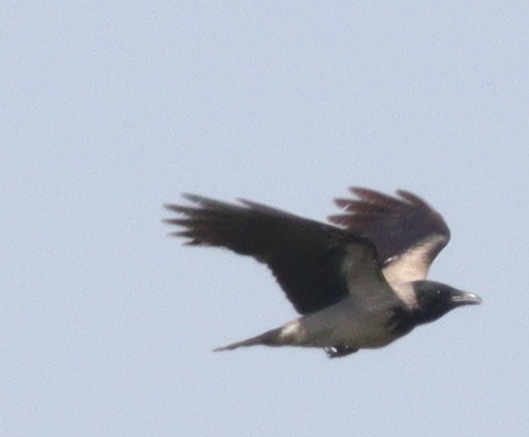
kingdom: Animalia
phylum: Chordata
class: Aves
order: Passeriformes
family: Corvidae
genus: Corvus
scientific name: Corvus cornix
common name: Hooded crow
